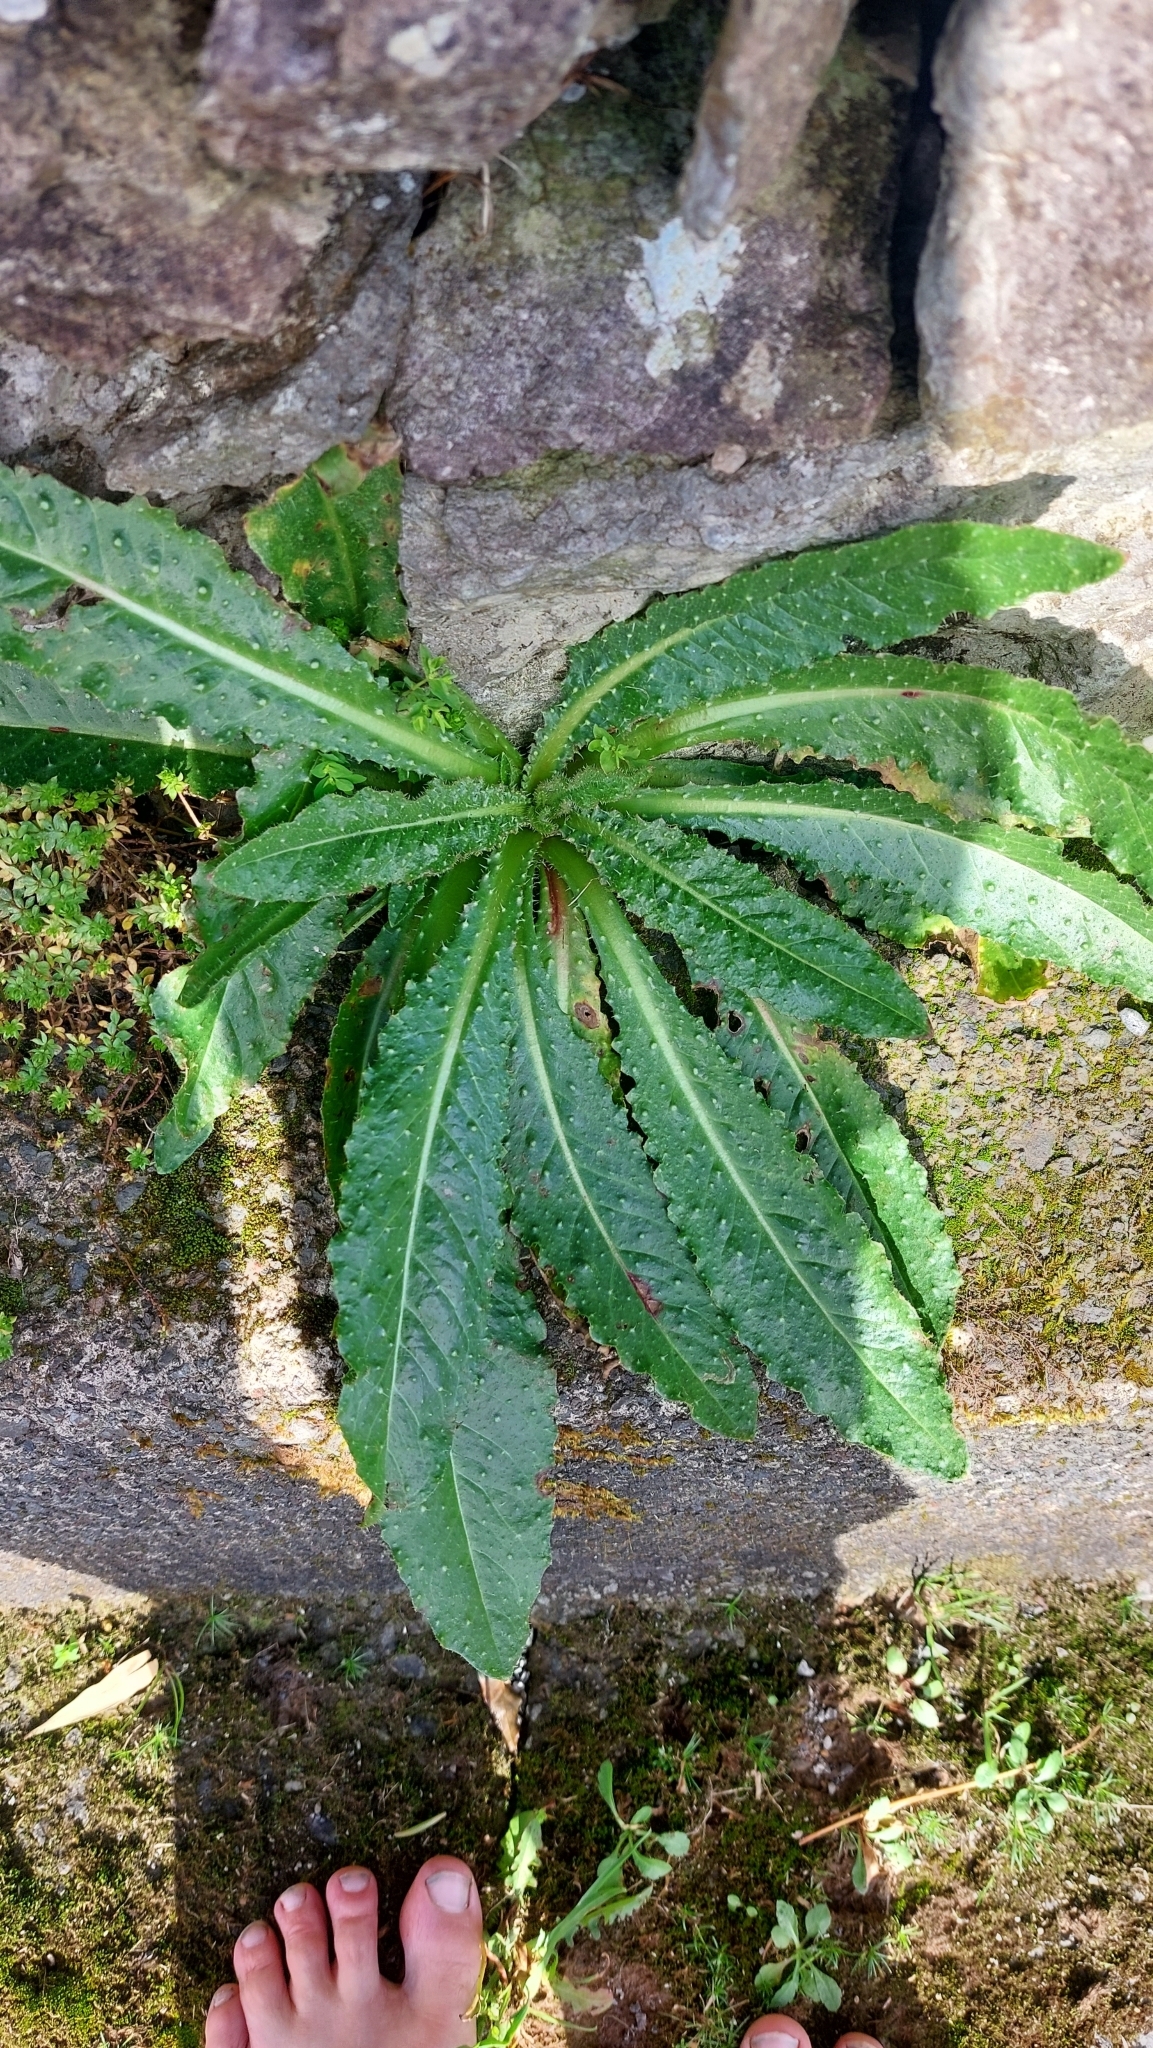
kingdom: Plantae
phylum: Tracheophyta
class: Magnoliopsida
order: Asterales
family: Asteraceae
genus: Helminthotheca
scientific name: Helminthotheca echioides
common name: Ox-tongue
